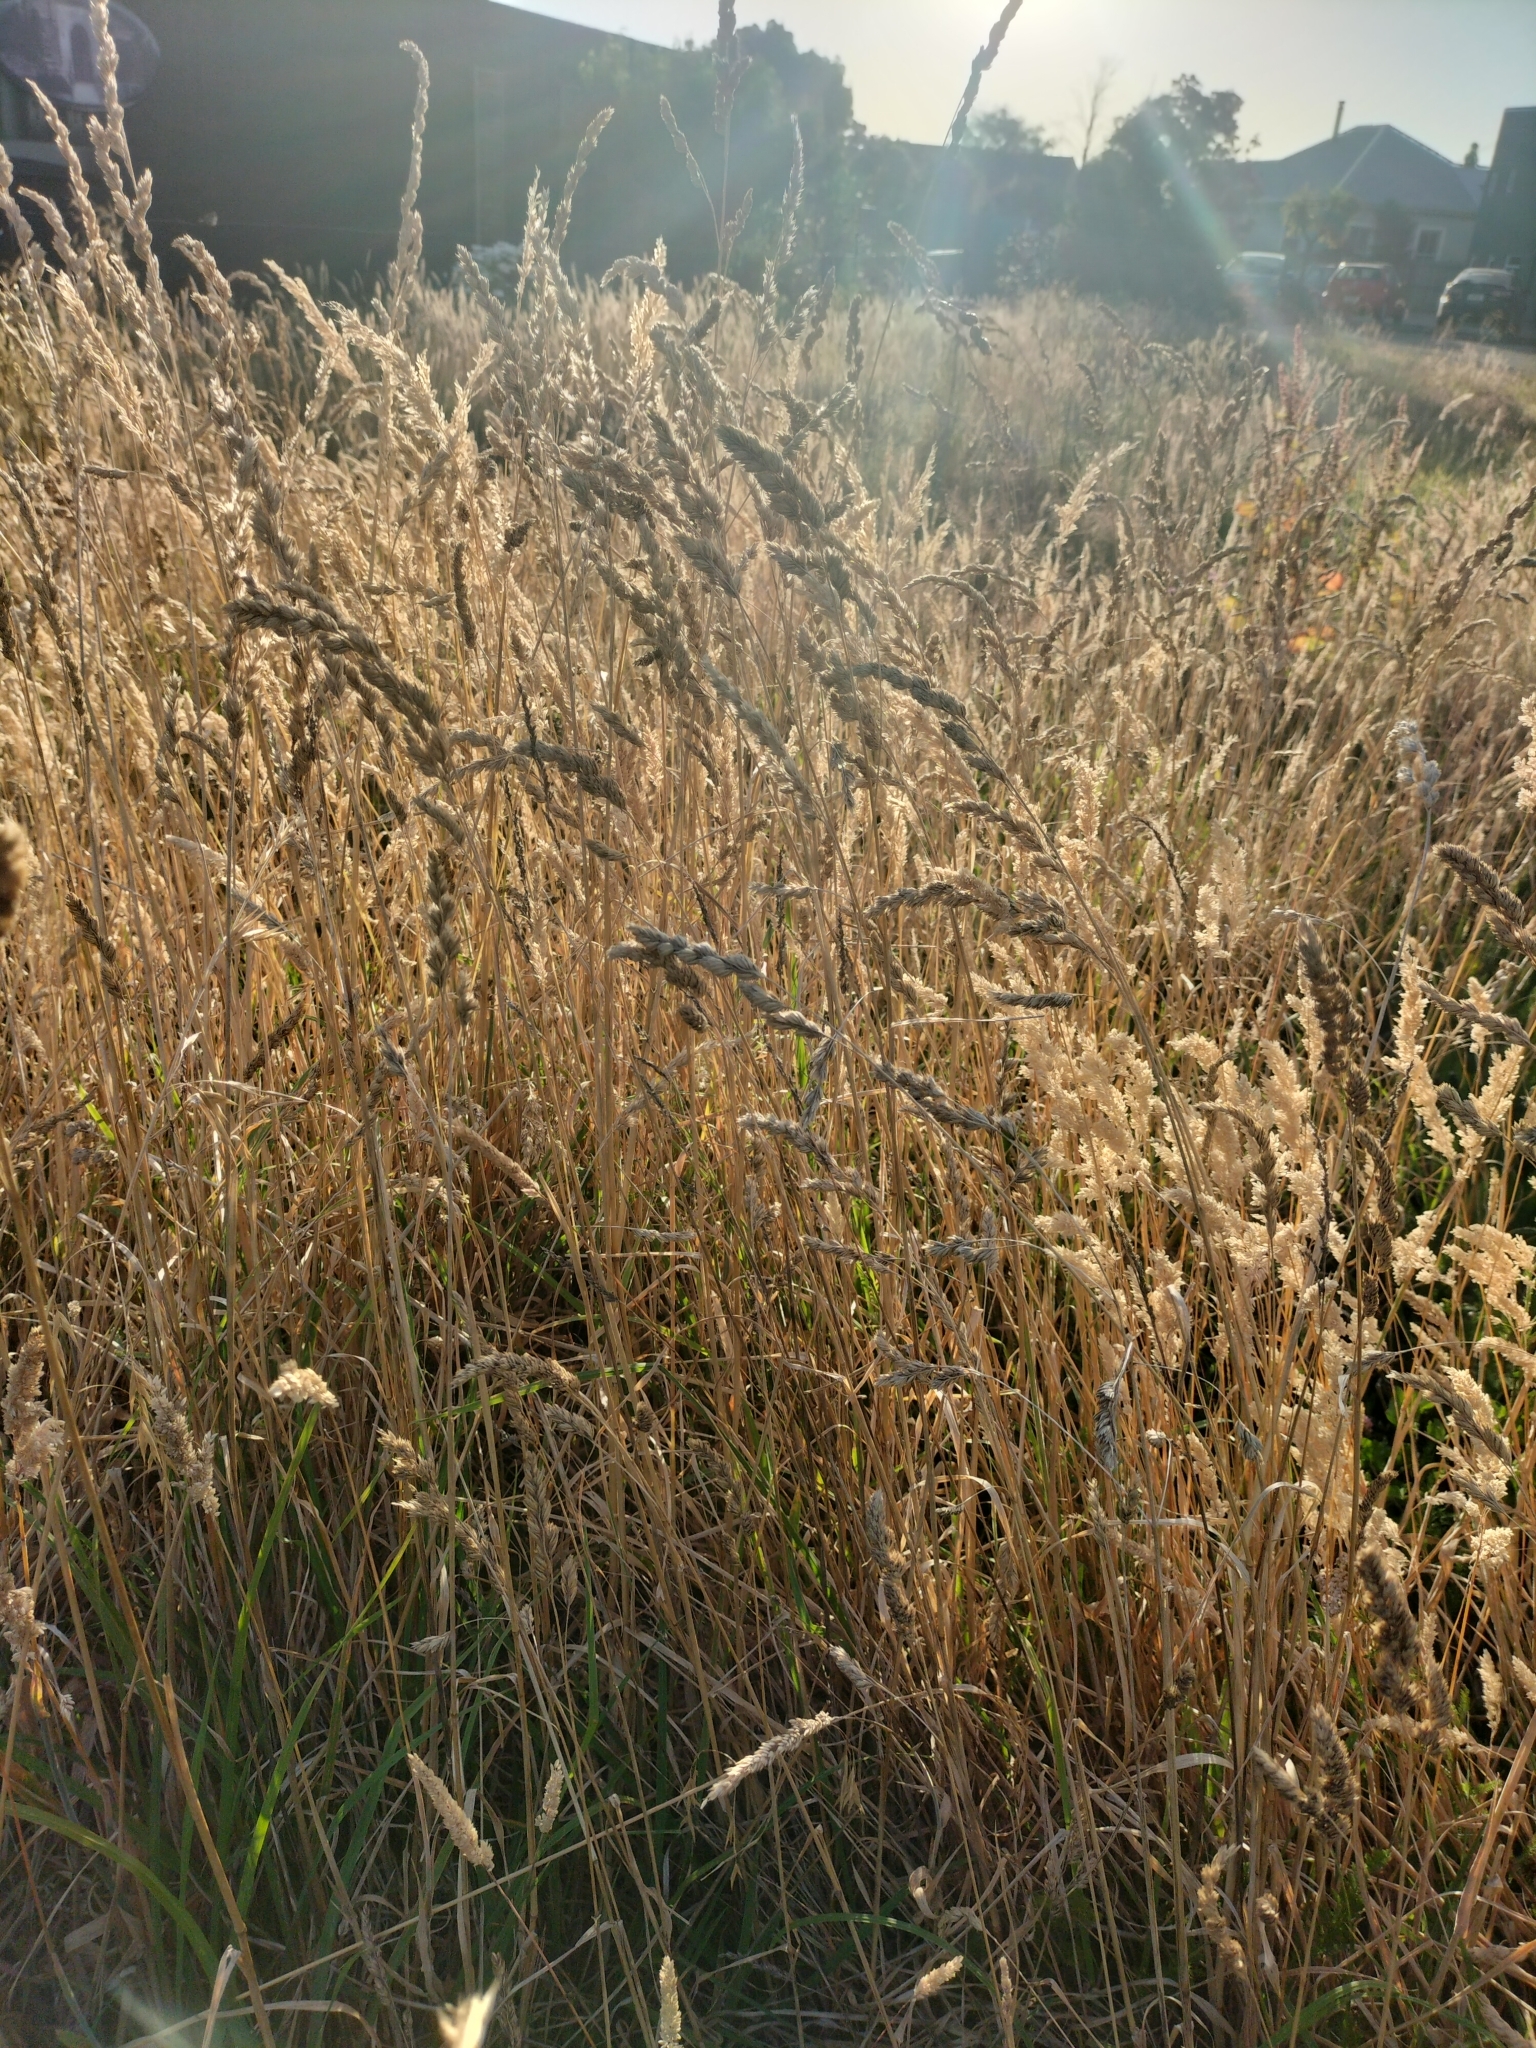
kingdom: Plantae
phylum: Tracheophyta
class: Liliopsida
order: Poales
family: Poaceae
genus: Dactylis
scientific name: Dactylis glomerata
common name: Orchardgrass
